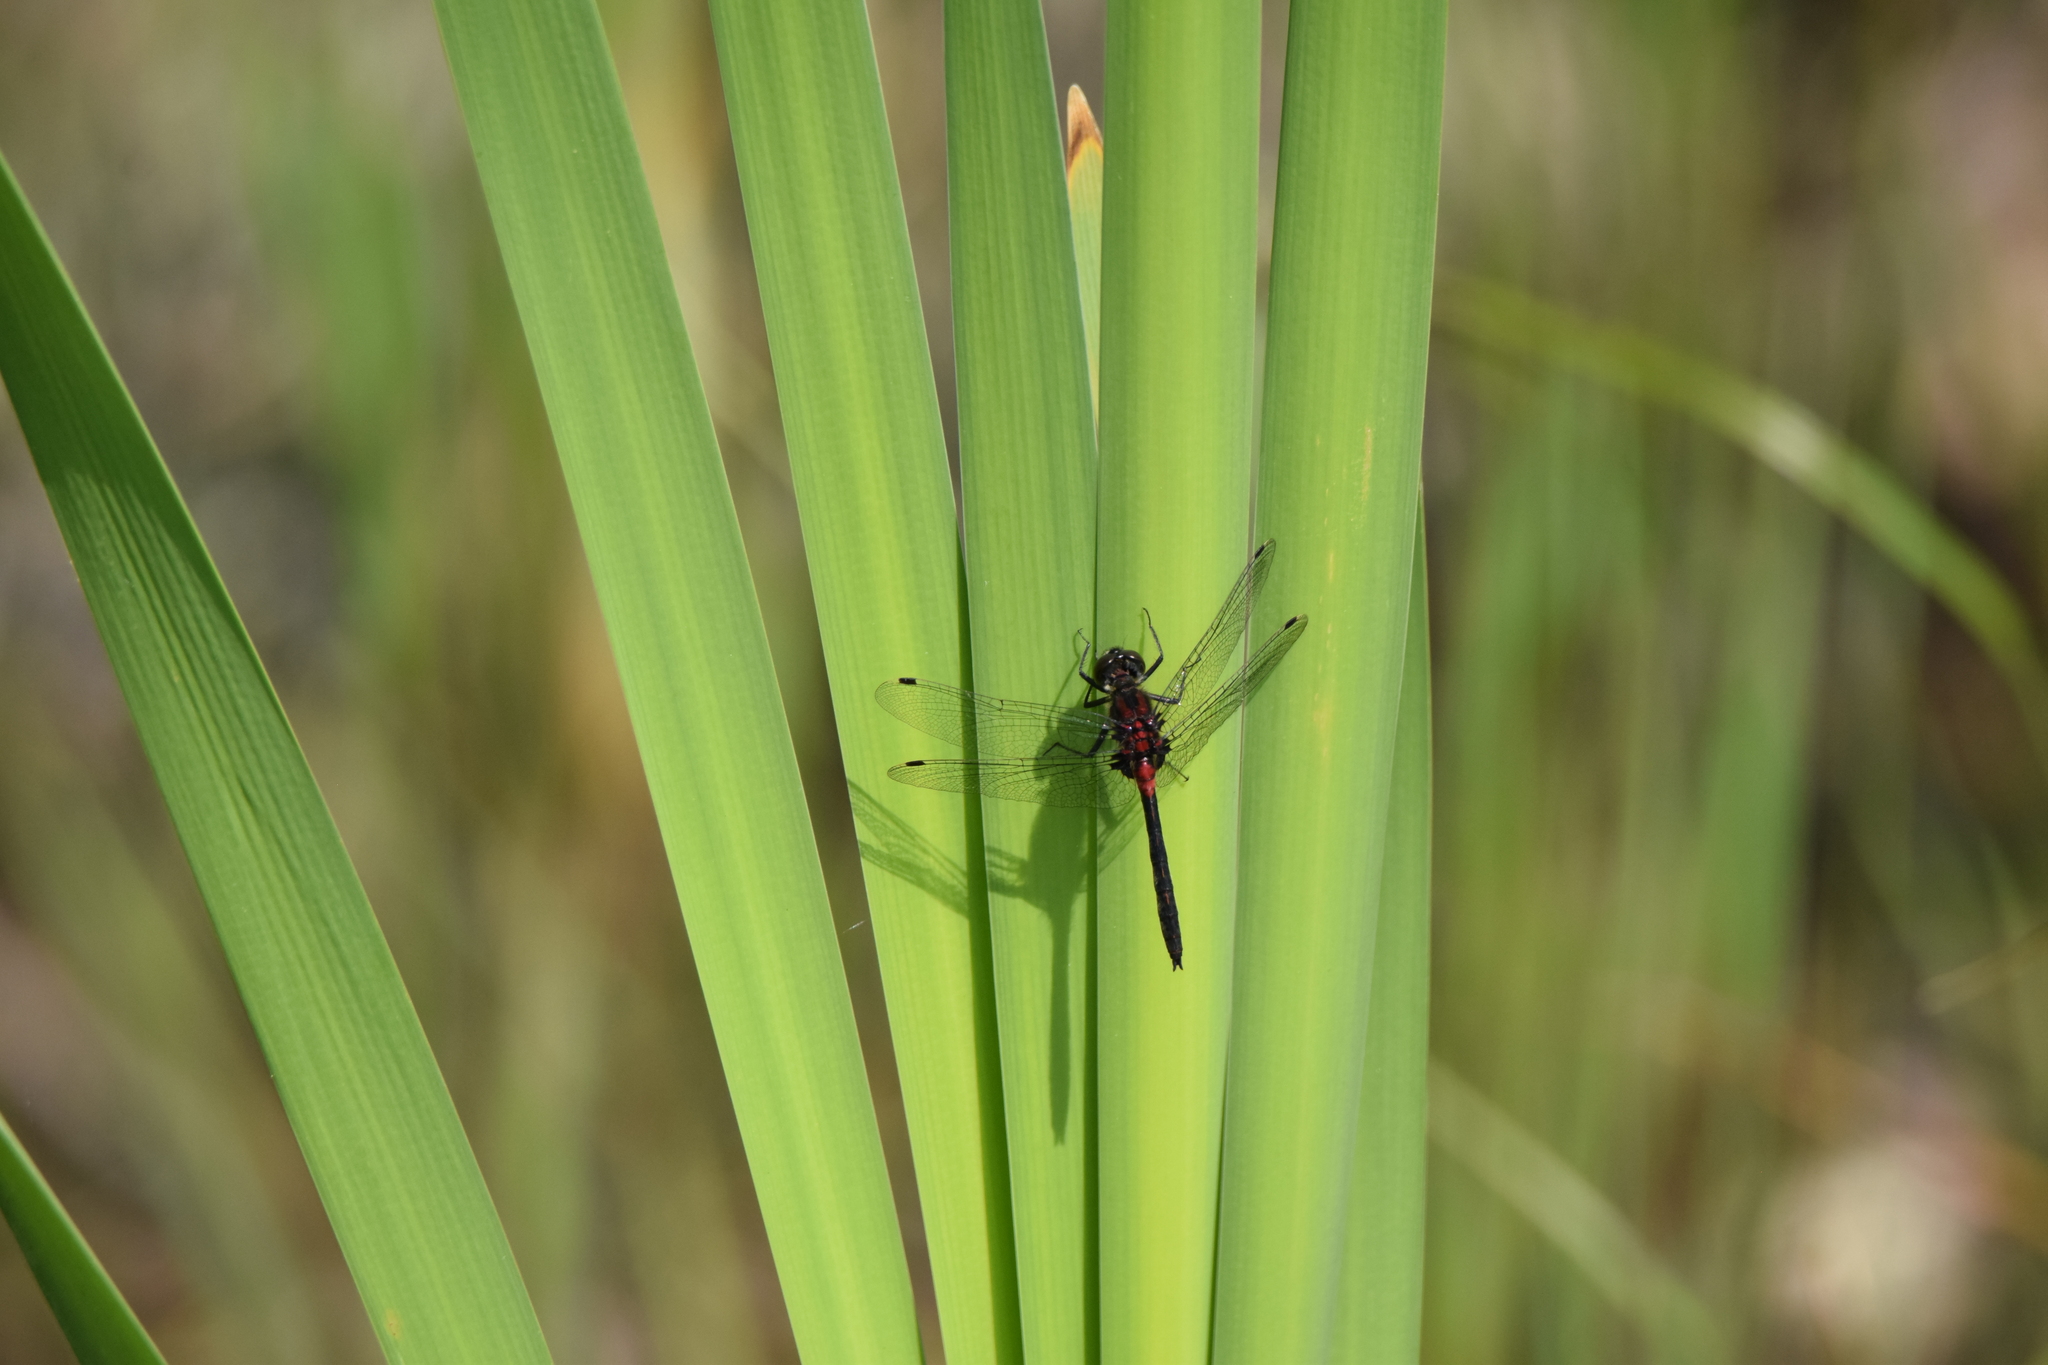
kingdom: Animalia
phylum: Arthropoda
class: Insecta
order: Odonata
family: Libellulidae
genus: Leucorrhinia
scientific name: Leucorrhinia proxima
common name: Belted whiteface
